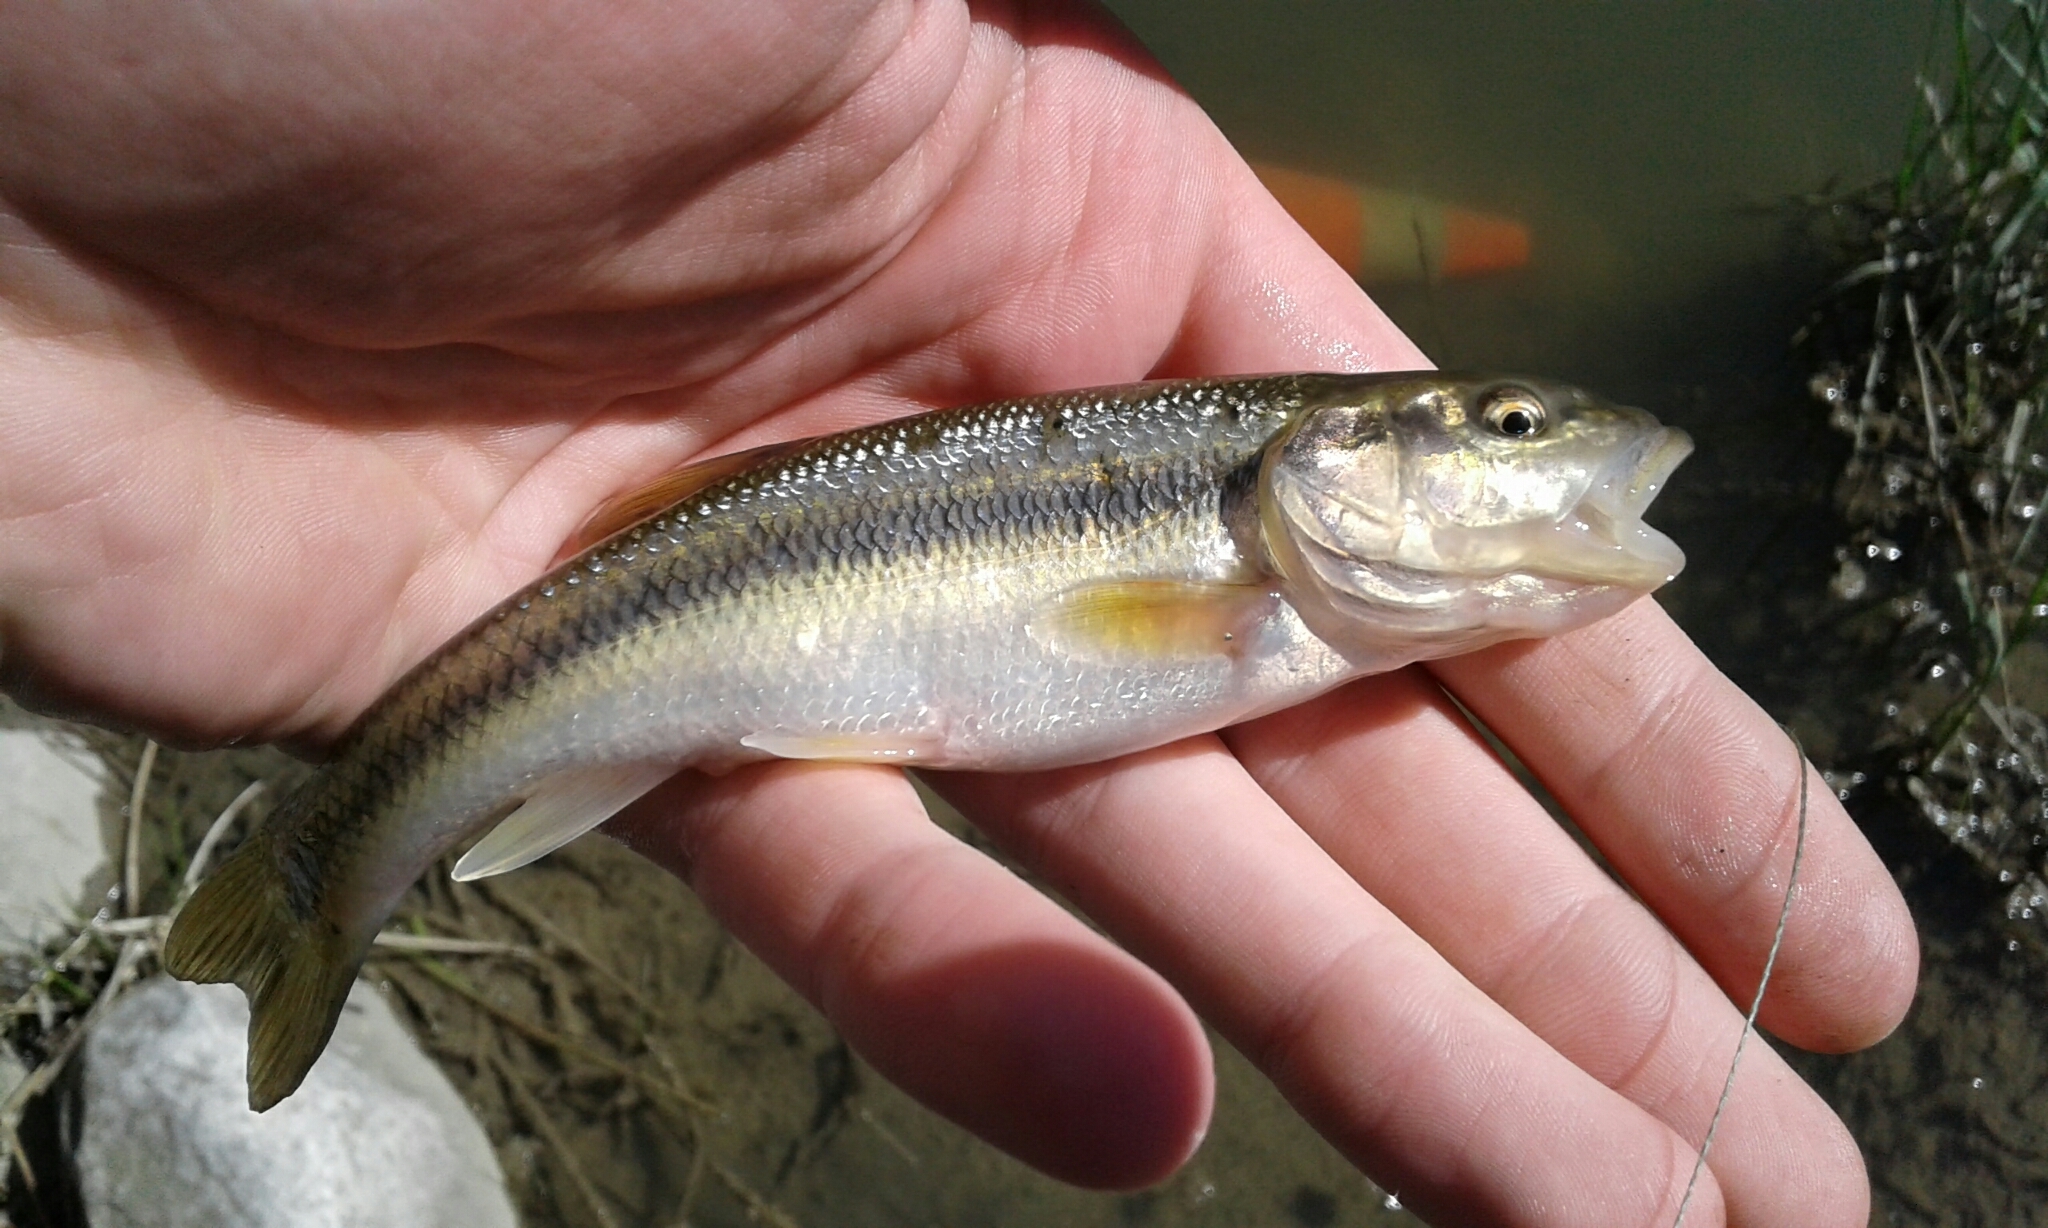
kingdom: Animalia
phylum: Chordata
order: Cypriniformes
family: Cyprinidae
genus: Semotilus
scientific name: Semotilus atromaculatus
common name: Creek chub
